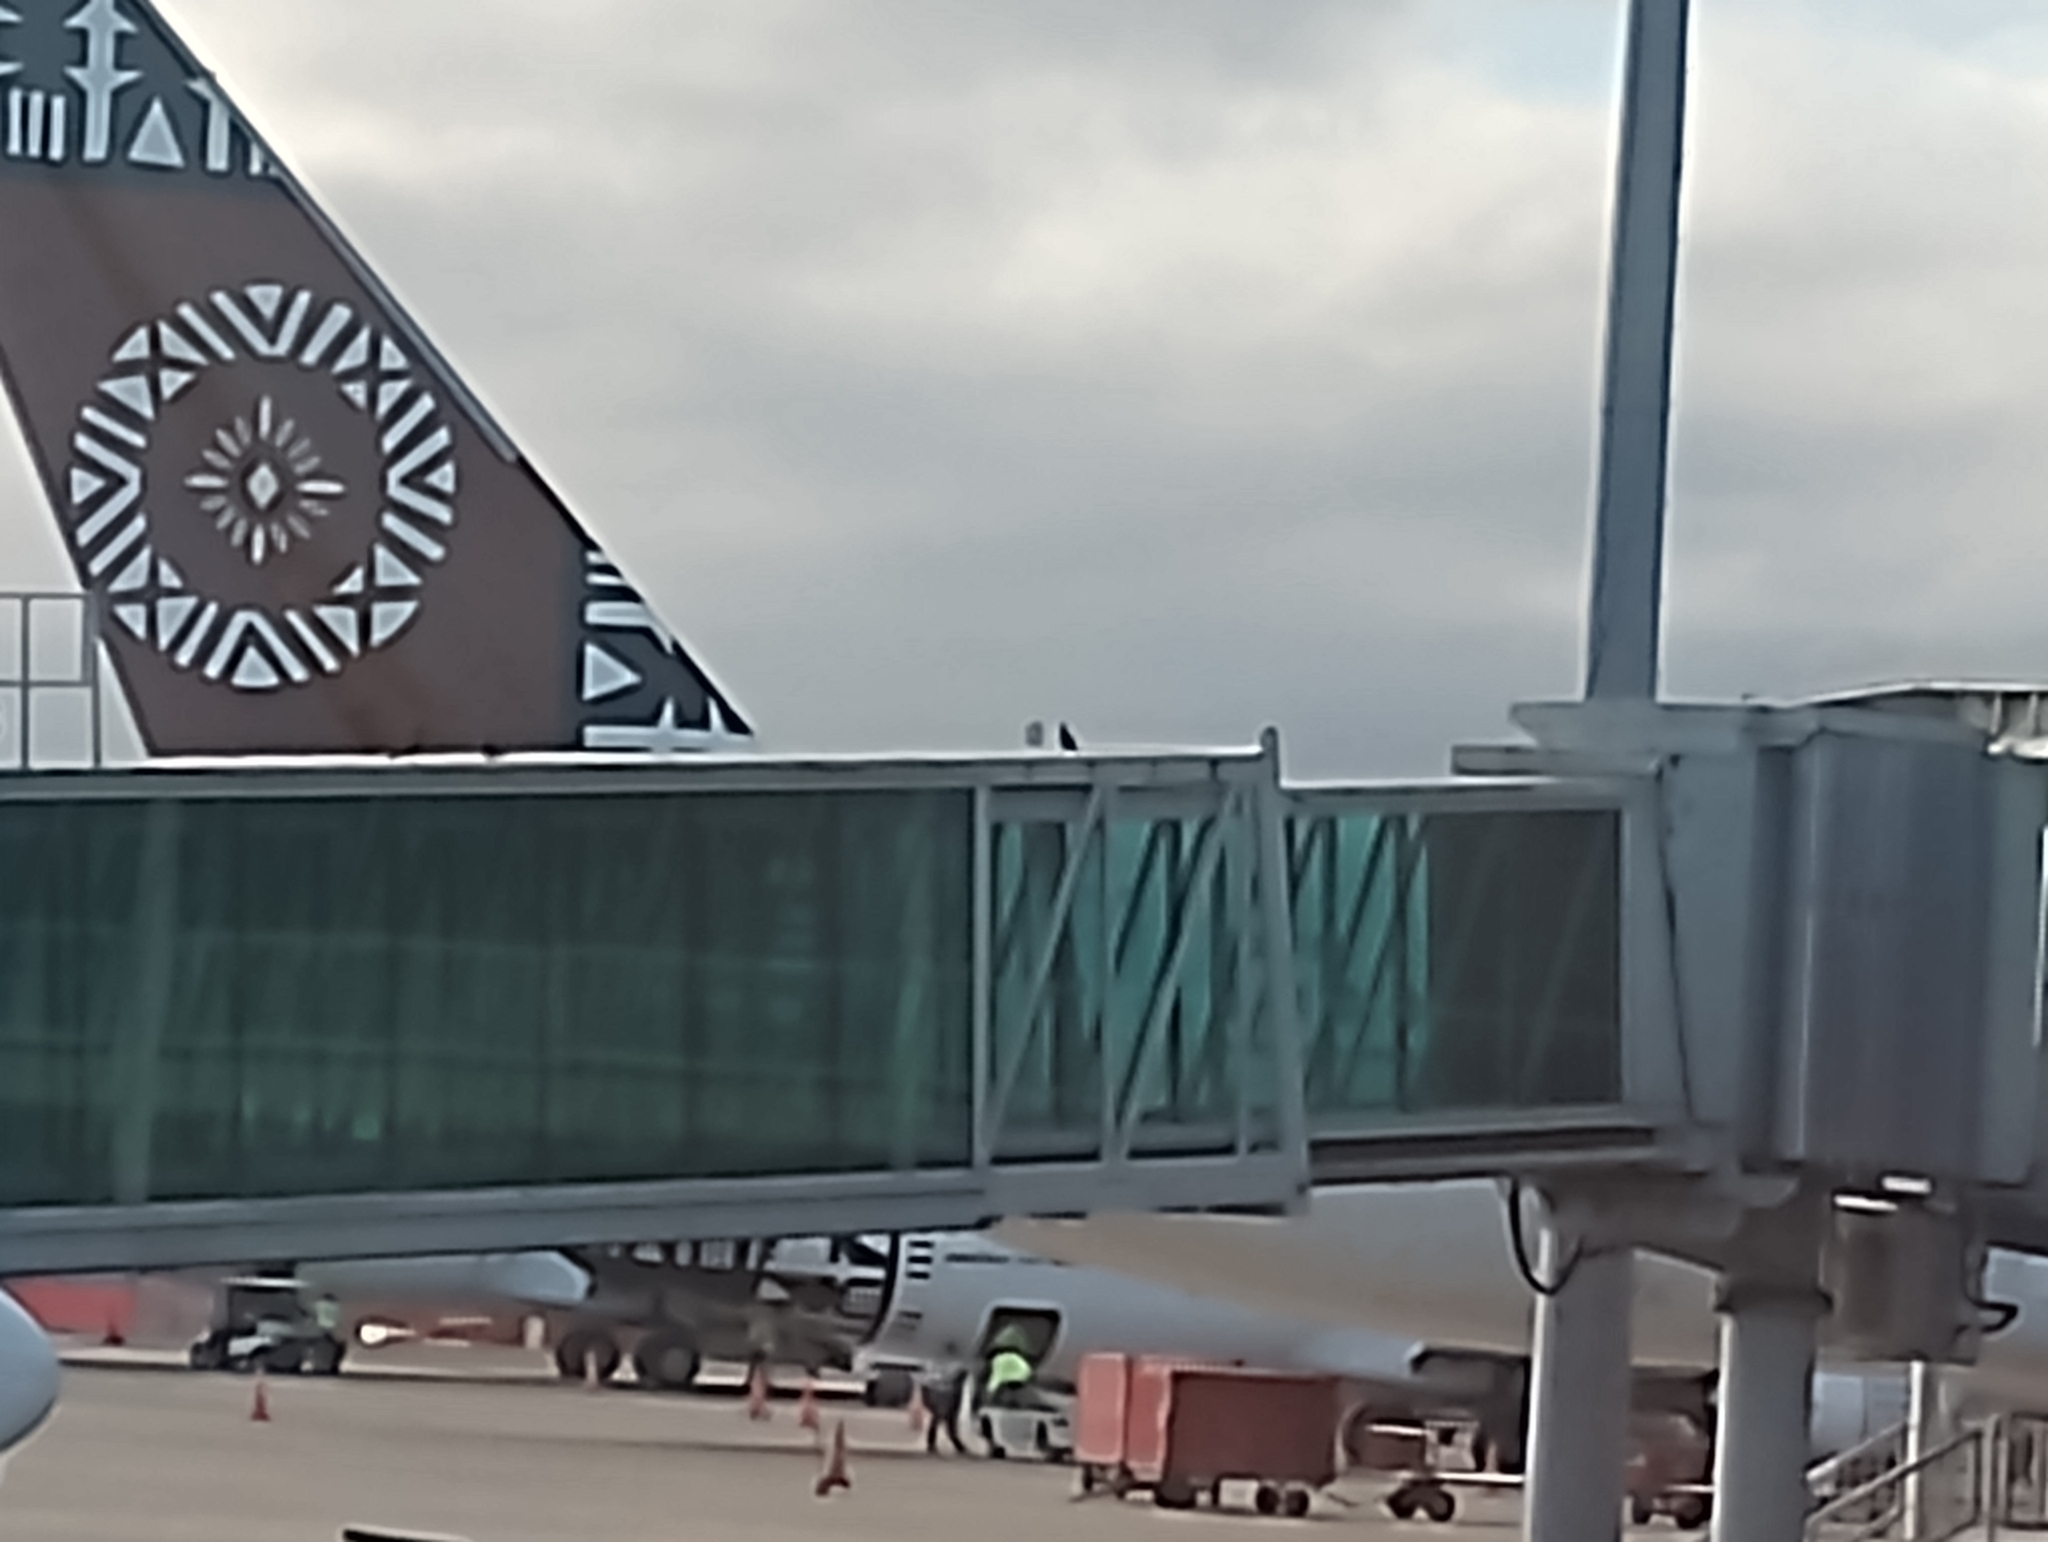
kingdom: Animalia
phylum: Chordata
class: Aves
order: Columbiformes
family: Columbidae
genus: Columba
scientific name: Columba livia
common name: Rock pigeon
